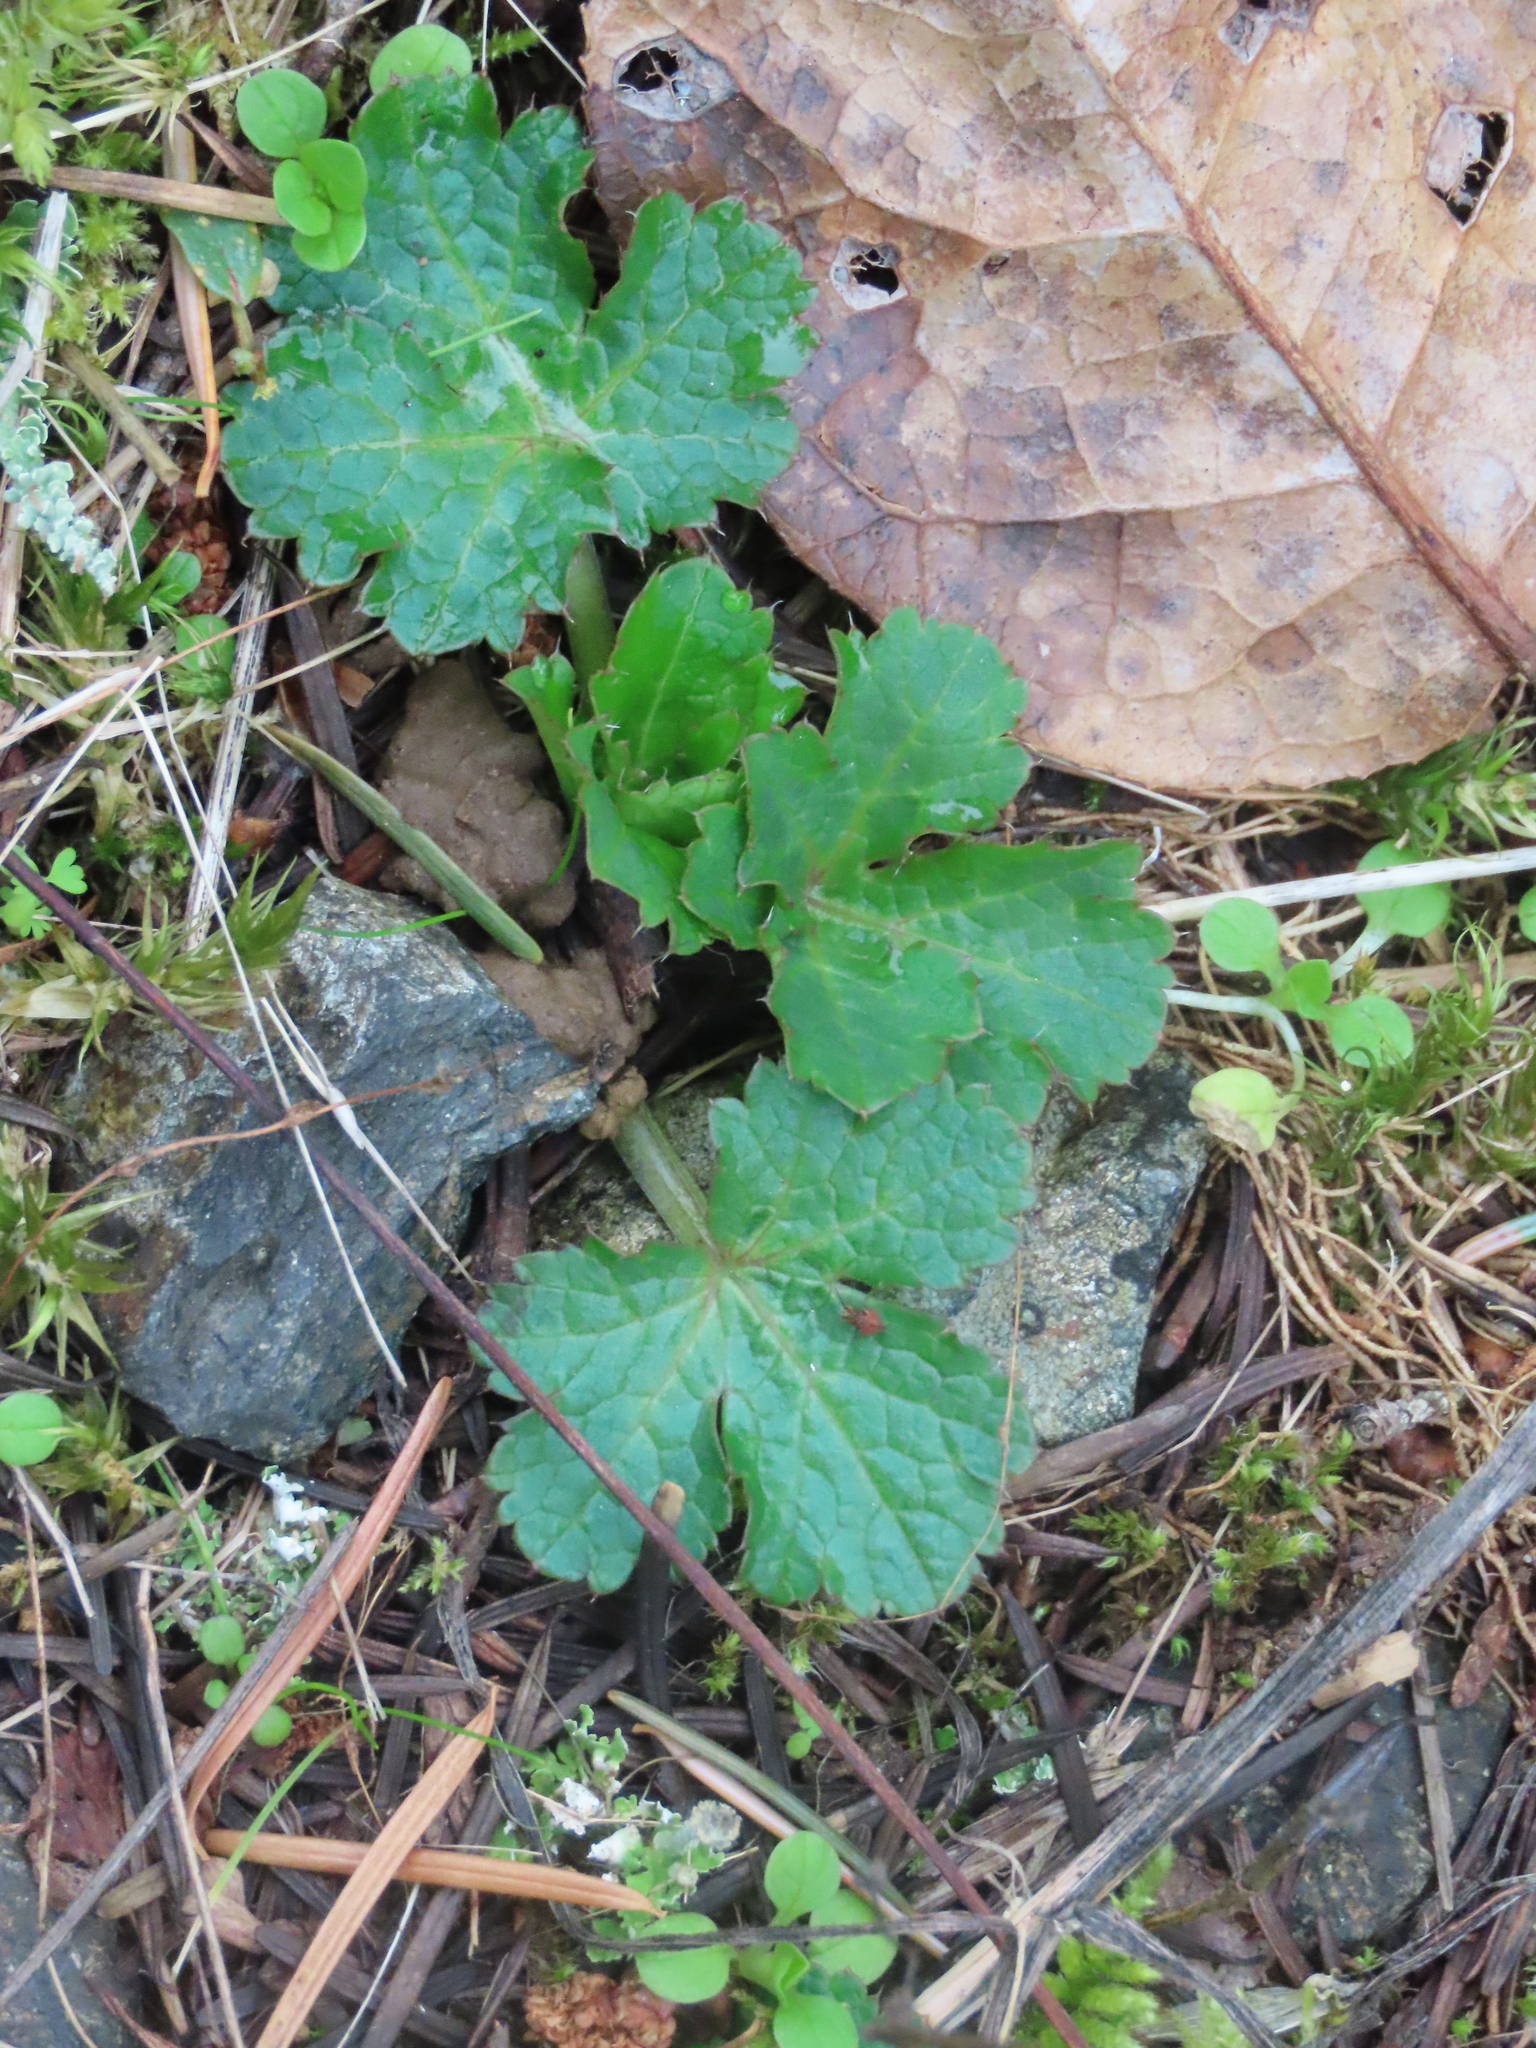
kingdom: Plantae
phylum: Tracheophyta
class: Magnoliopsida
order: Apiales
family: Apiaceae
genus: Sanicula
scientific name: Sanicula crassicaulis
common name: Western snakeroot
